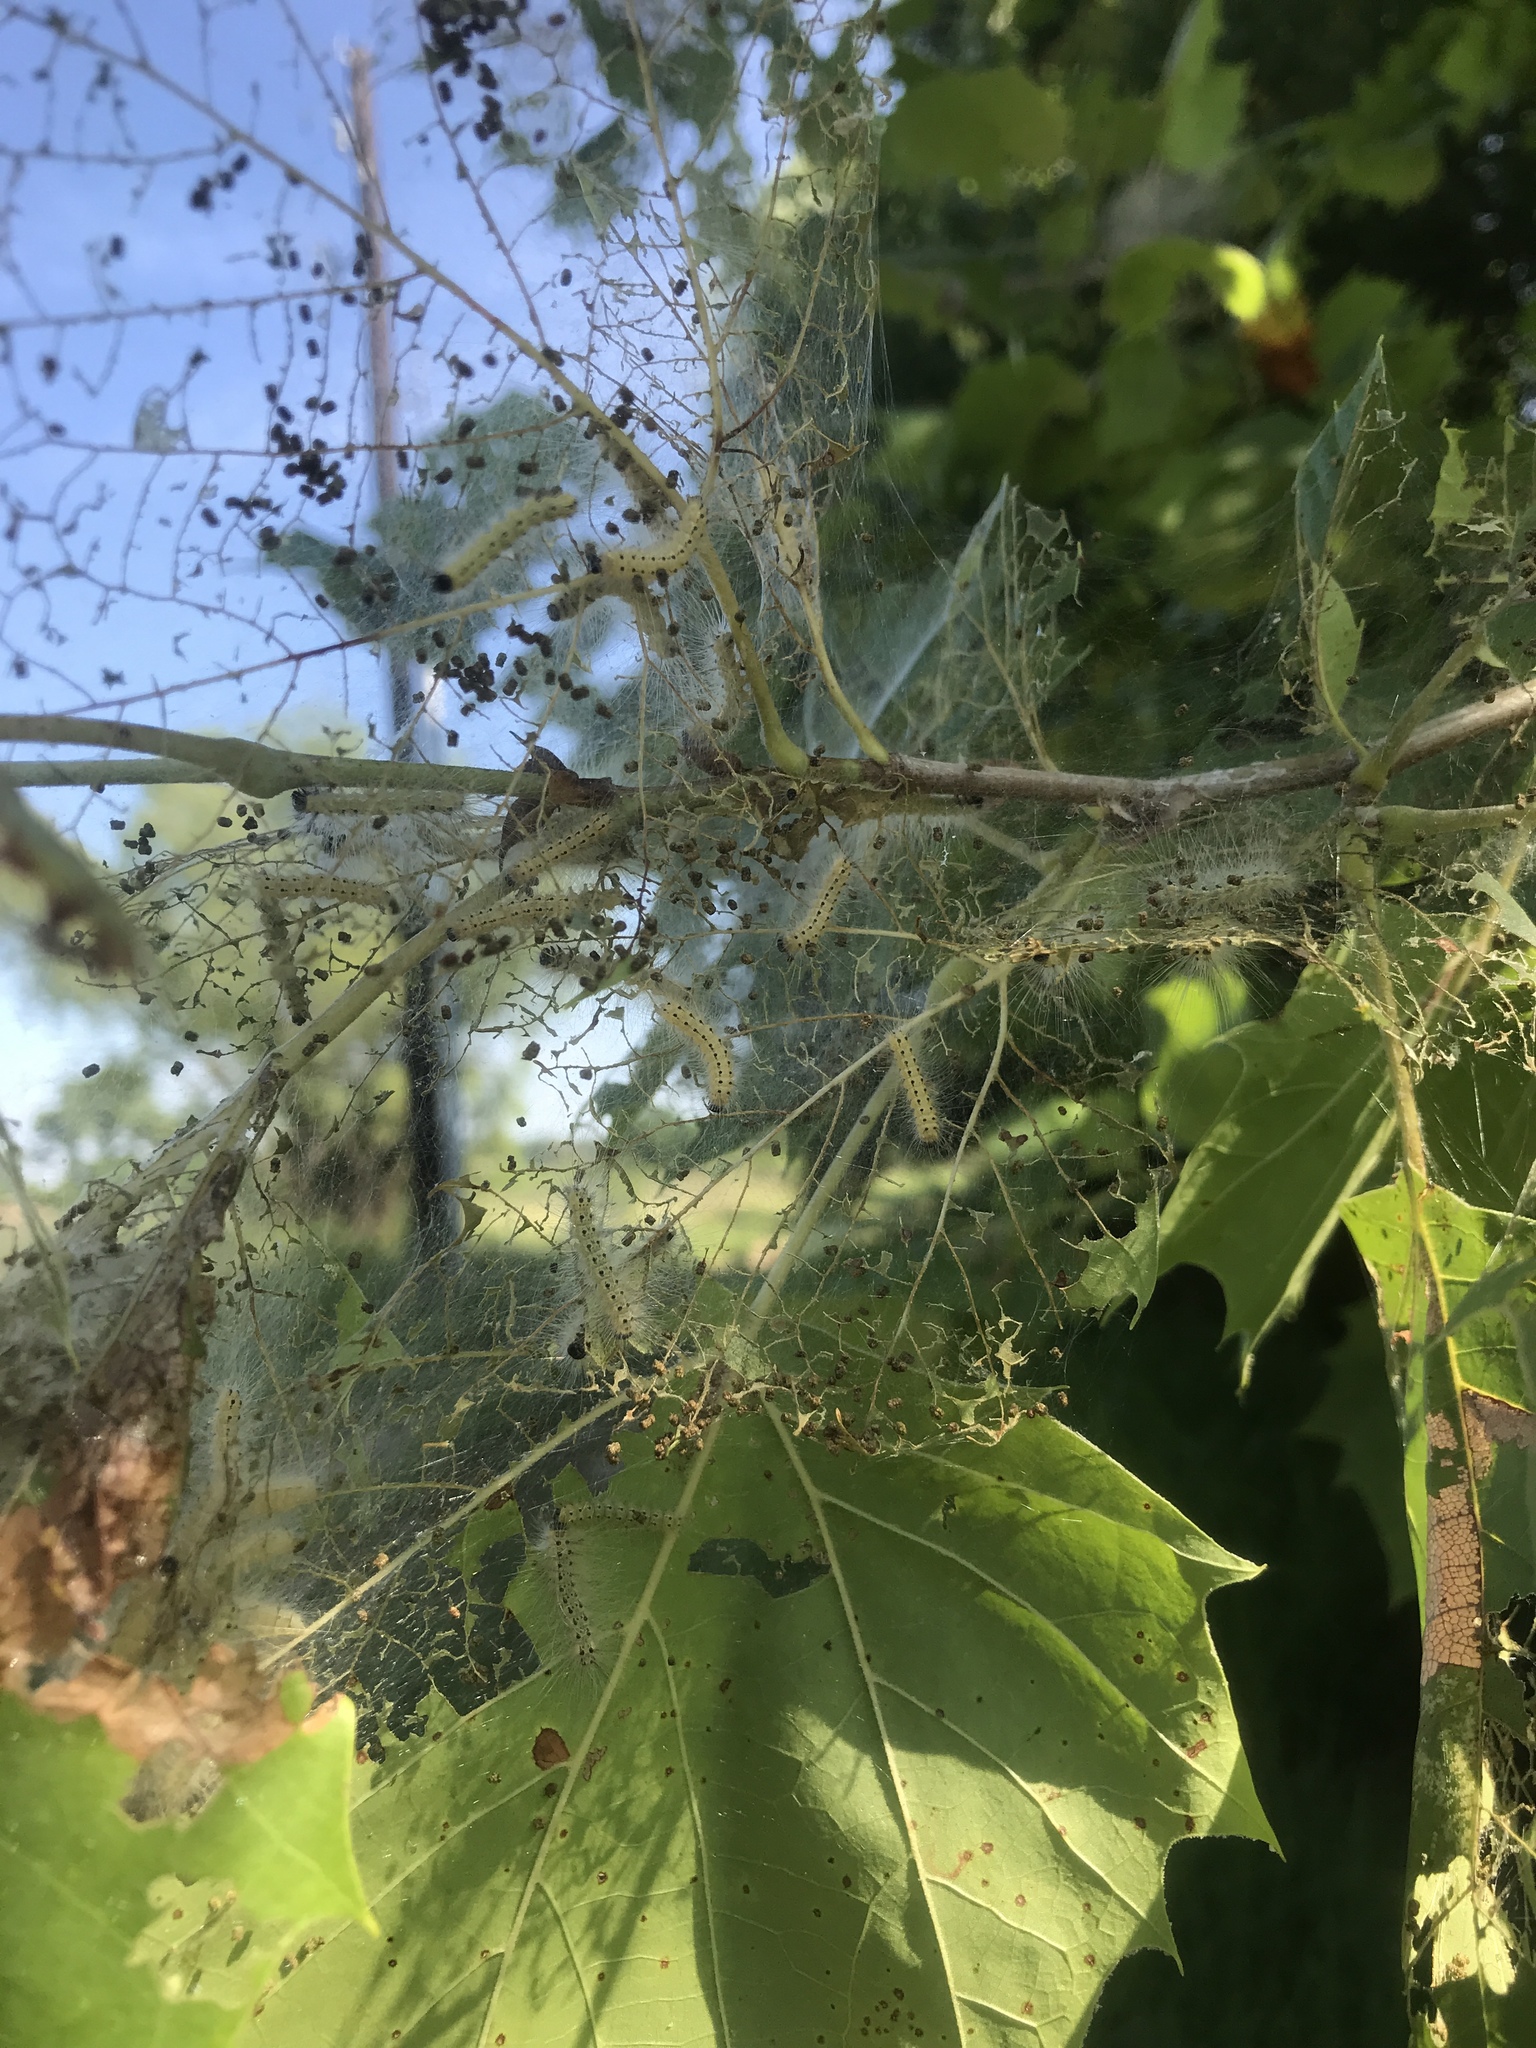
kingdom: Animalia
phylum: Arthropoda
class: Insecta
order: Lepidoptera
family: Erebidae
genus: Hyphantria
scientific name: Hyphantria cunea
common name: American white moth
